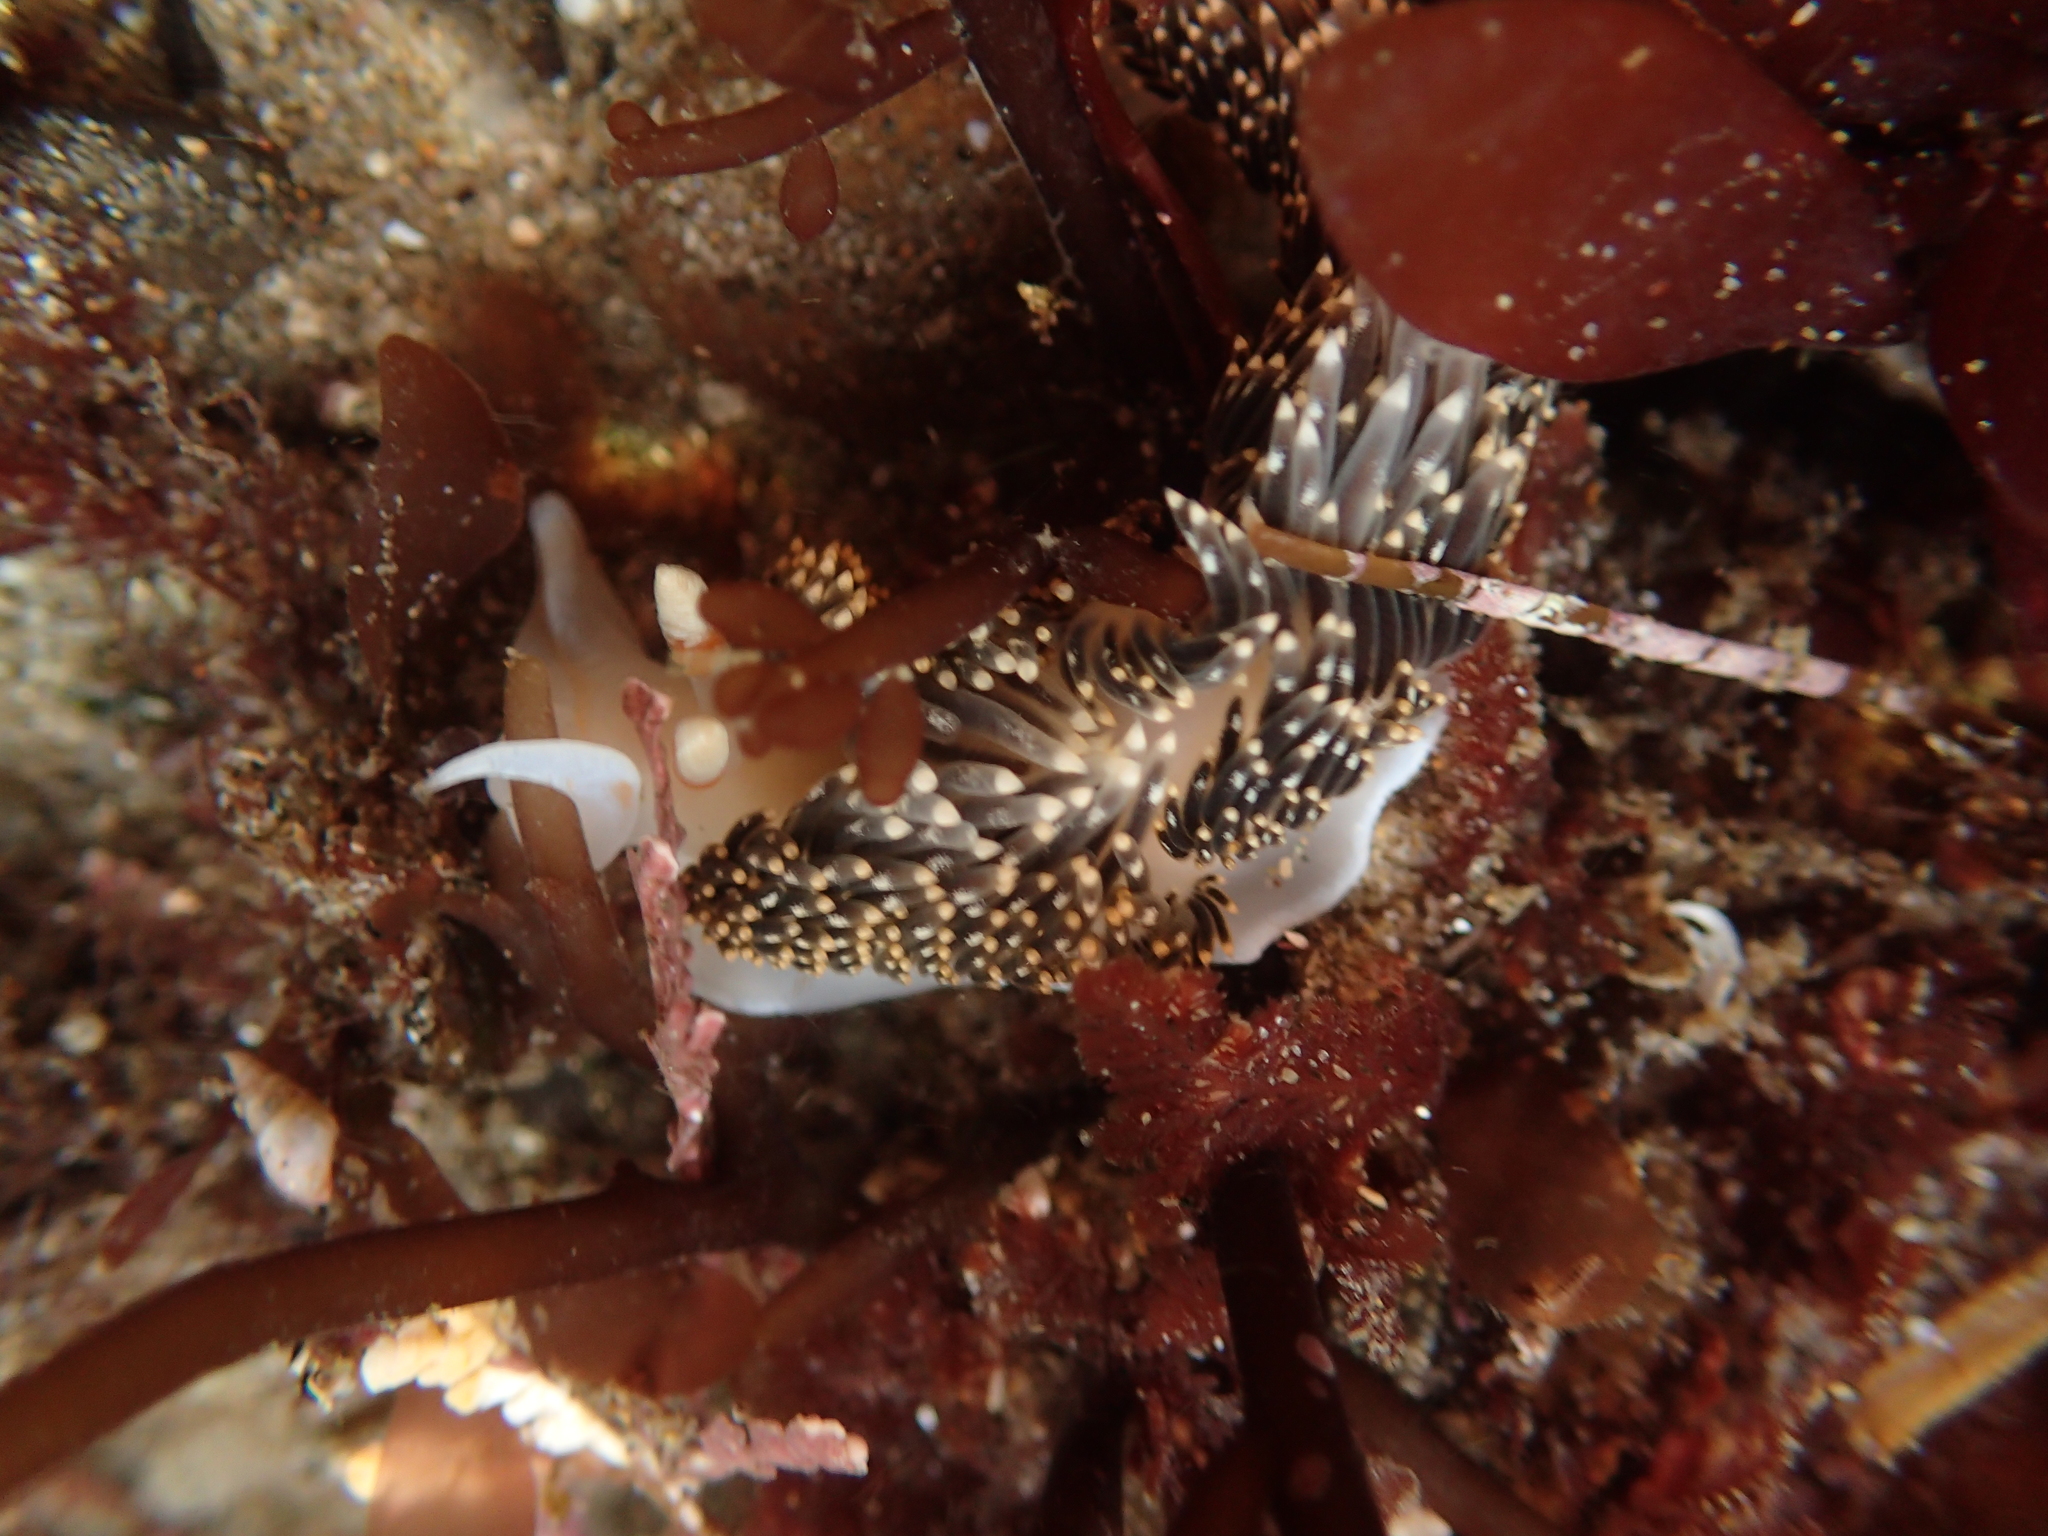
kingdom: Animalia
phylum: Mollusca
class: Gastropoda
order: Nudibranchia
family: Facelinidae
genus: Phidiana
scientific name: Phidiana hiltoni
